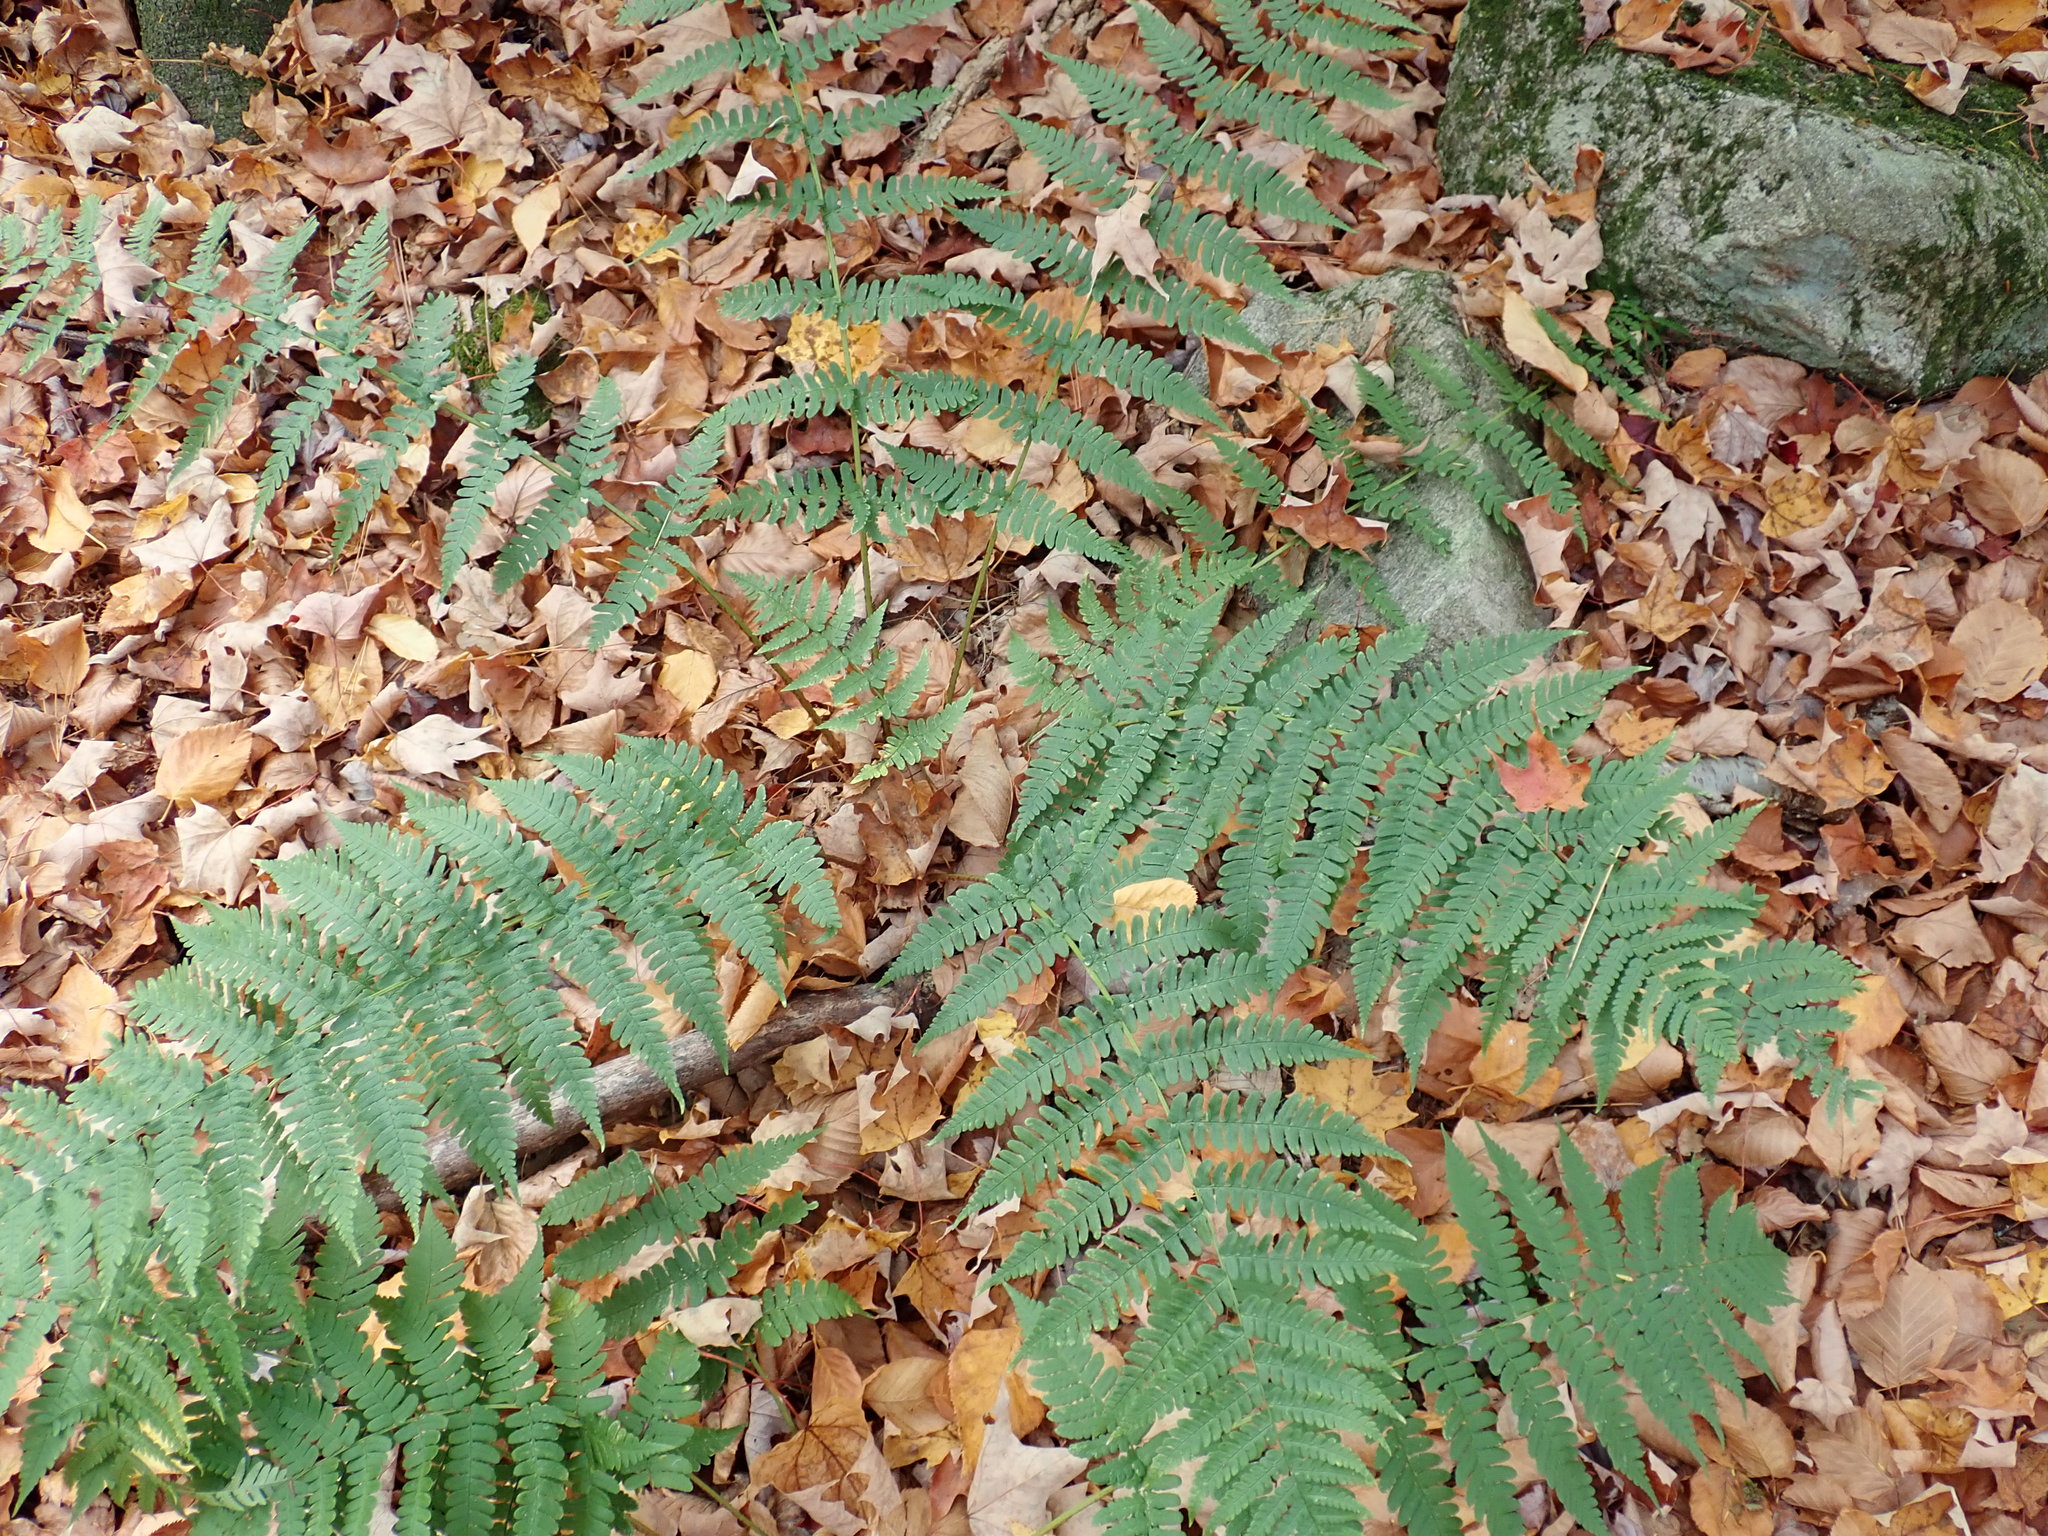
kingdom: Plantae
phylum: Tracheophyta
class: Polypodiopsida
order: Polypodiales
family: Dryopteridaceae
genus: Dryopteris
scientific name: Dryopteris marginalis
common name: Marginal wood fern
